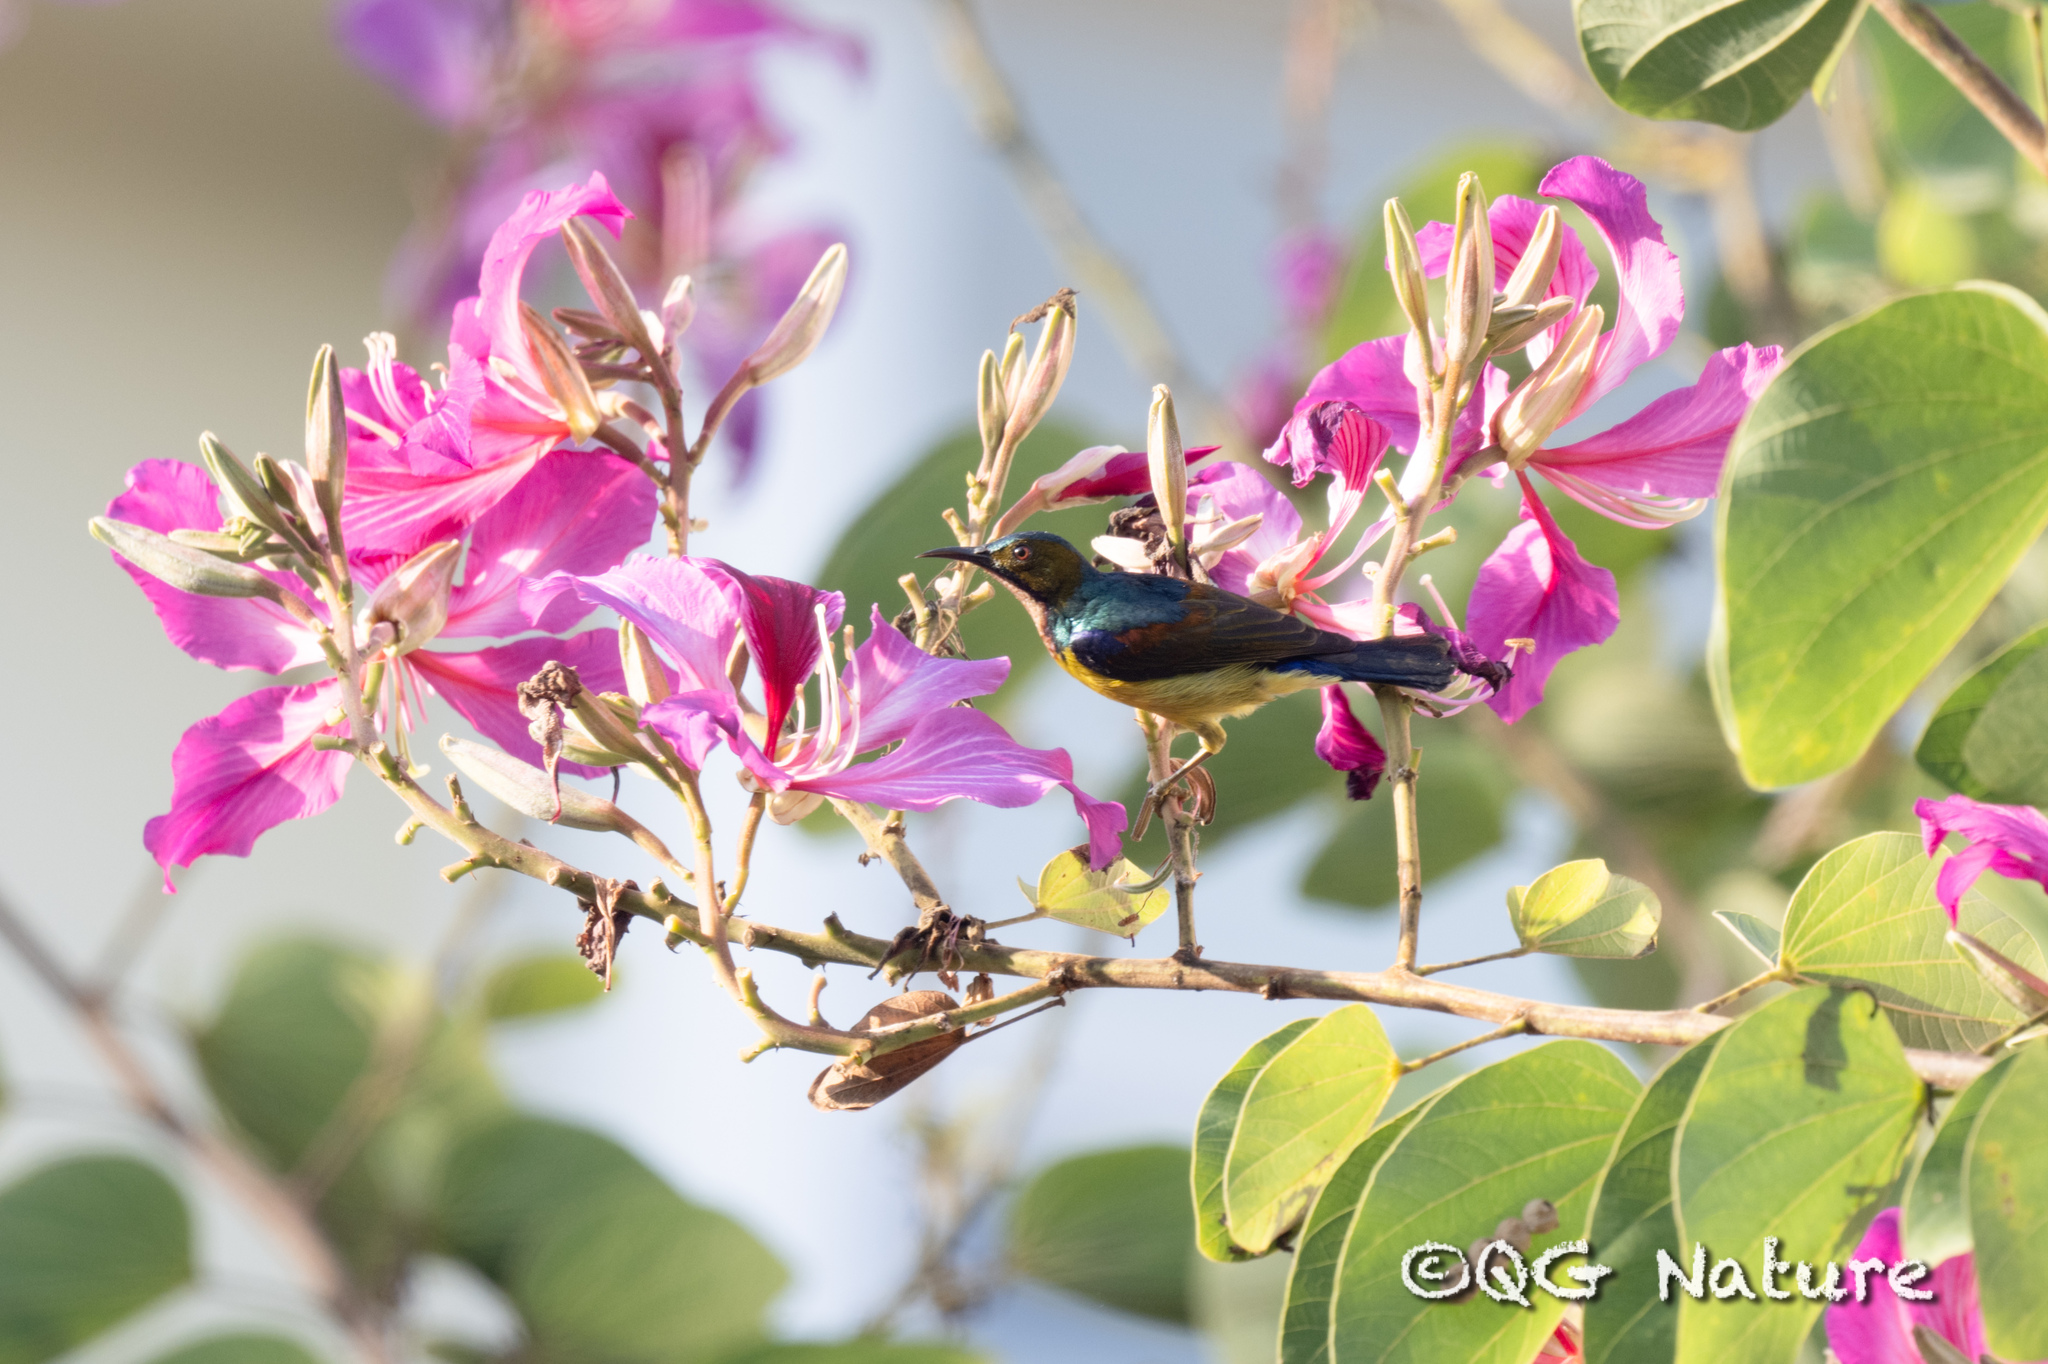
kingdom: Animalia
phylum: Chordata
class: Aves
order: Passeriformes
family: Nectariniidae
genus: Anthreptes
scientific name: Anthreptes malacensis
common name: Brown-throated sunbird
